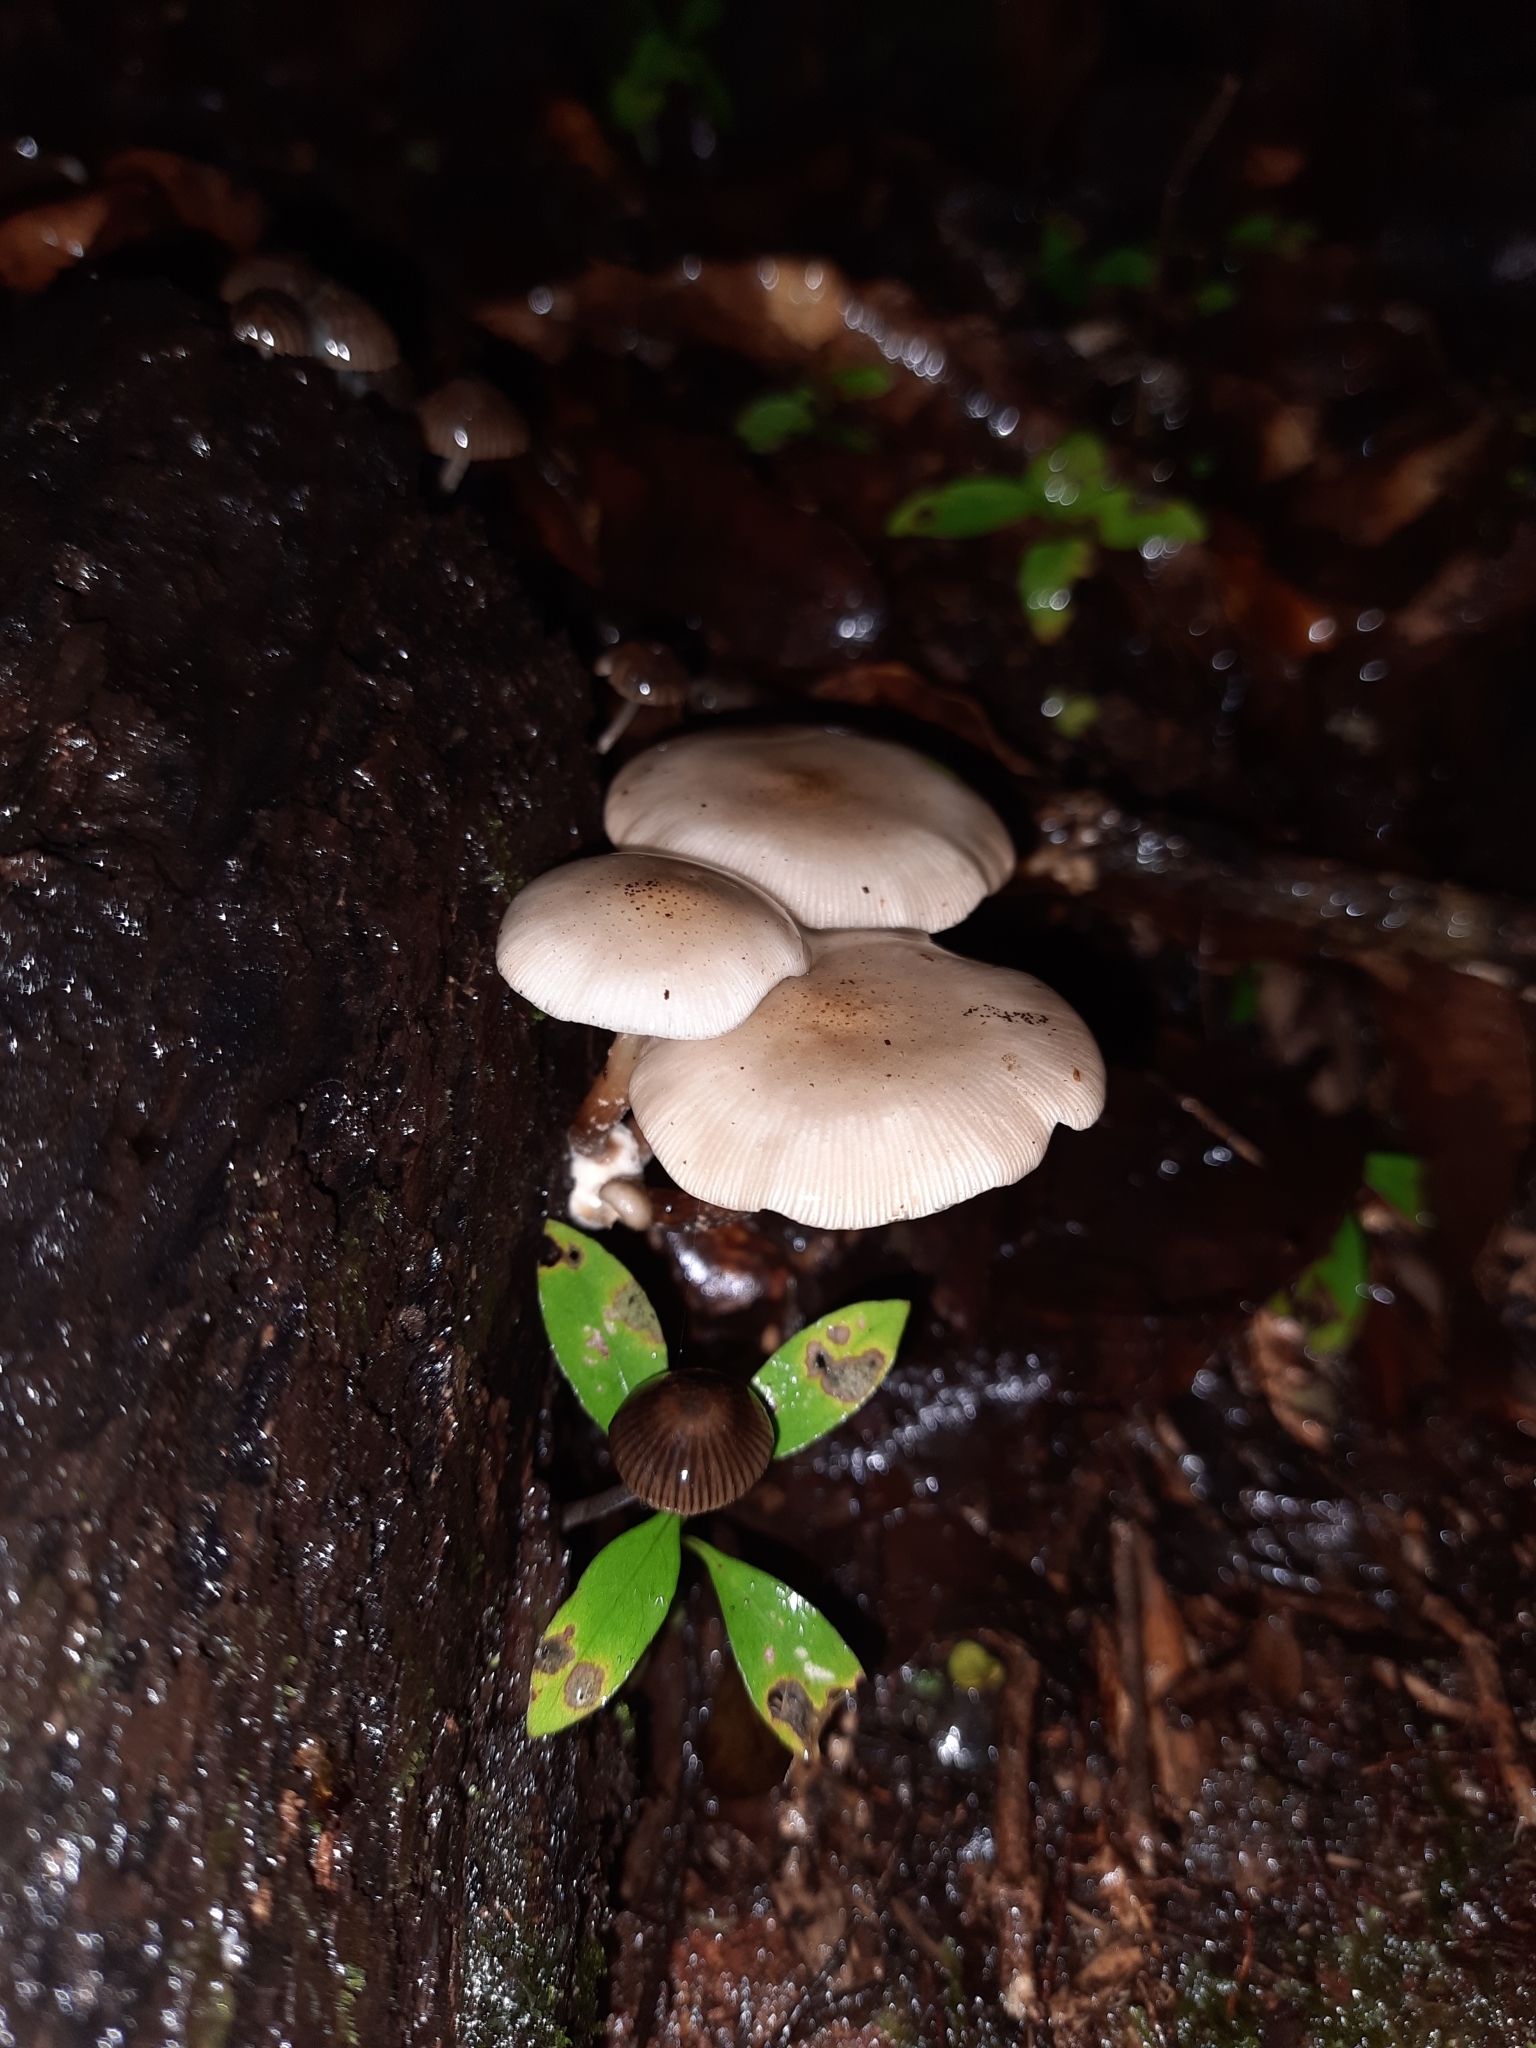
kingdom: Fungi
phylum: Basidiomycota
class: Agaricomycetes
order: Agaricales
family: Physalacriaceae
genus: Armillaria
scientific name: Armillaria novae-zelandiae
